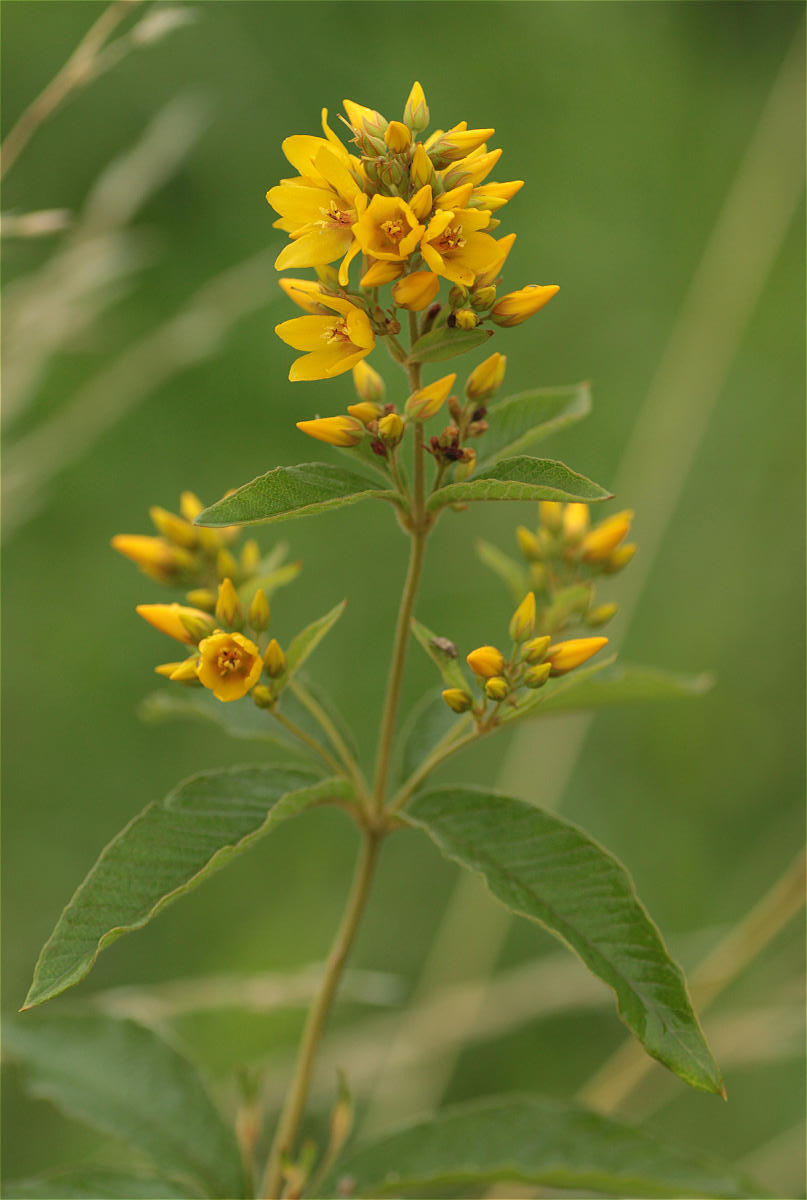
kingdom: Plantae
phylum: Tracheophyta
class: Magnoliopsida
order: Ericales
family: Primulaceae
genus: Lysimachia
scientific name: Lysimachia vulgaris
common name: Yellow loosestrife
